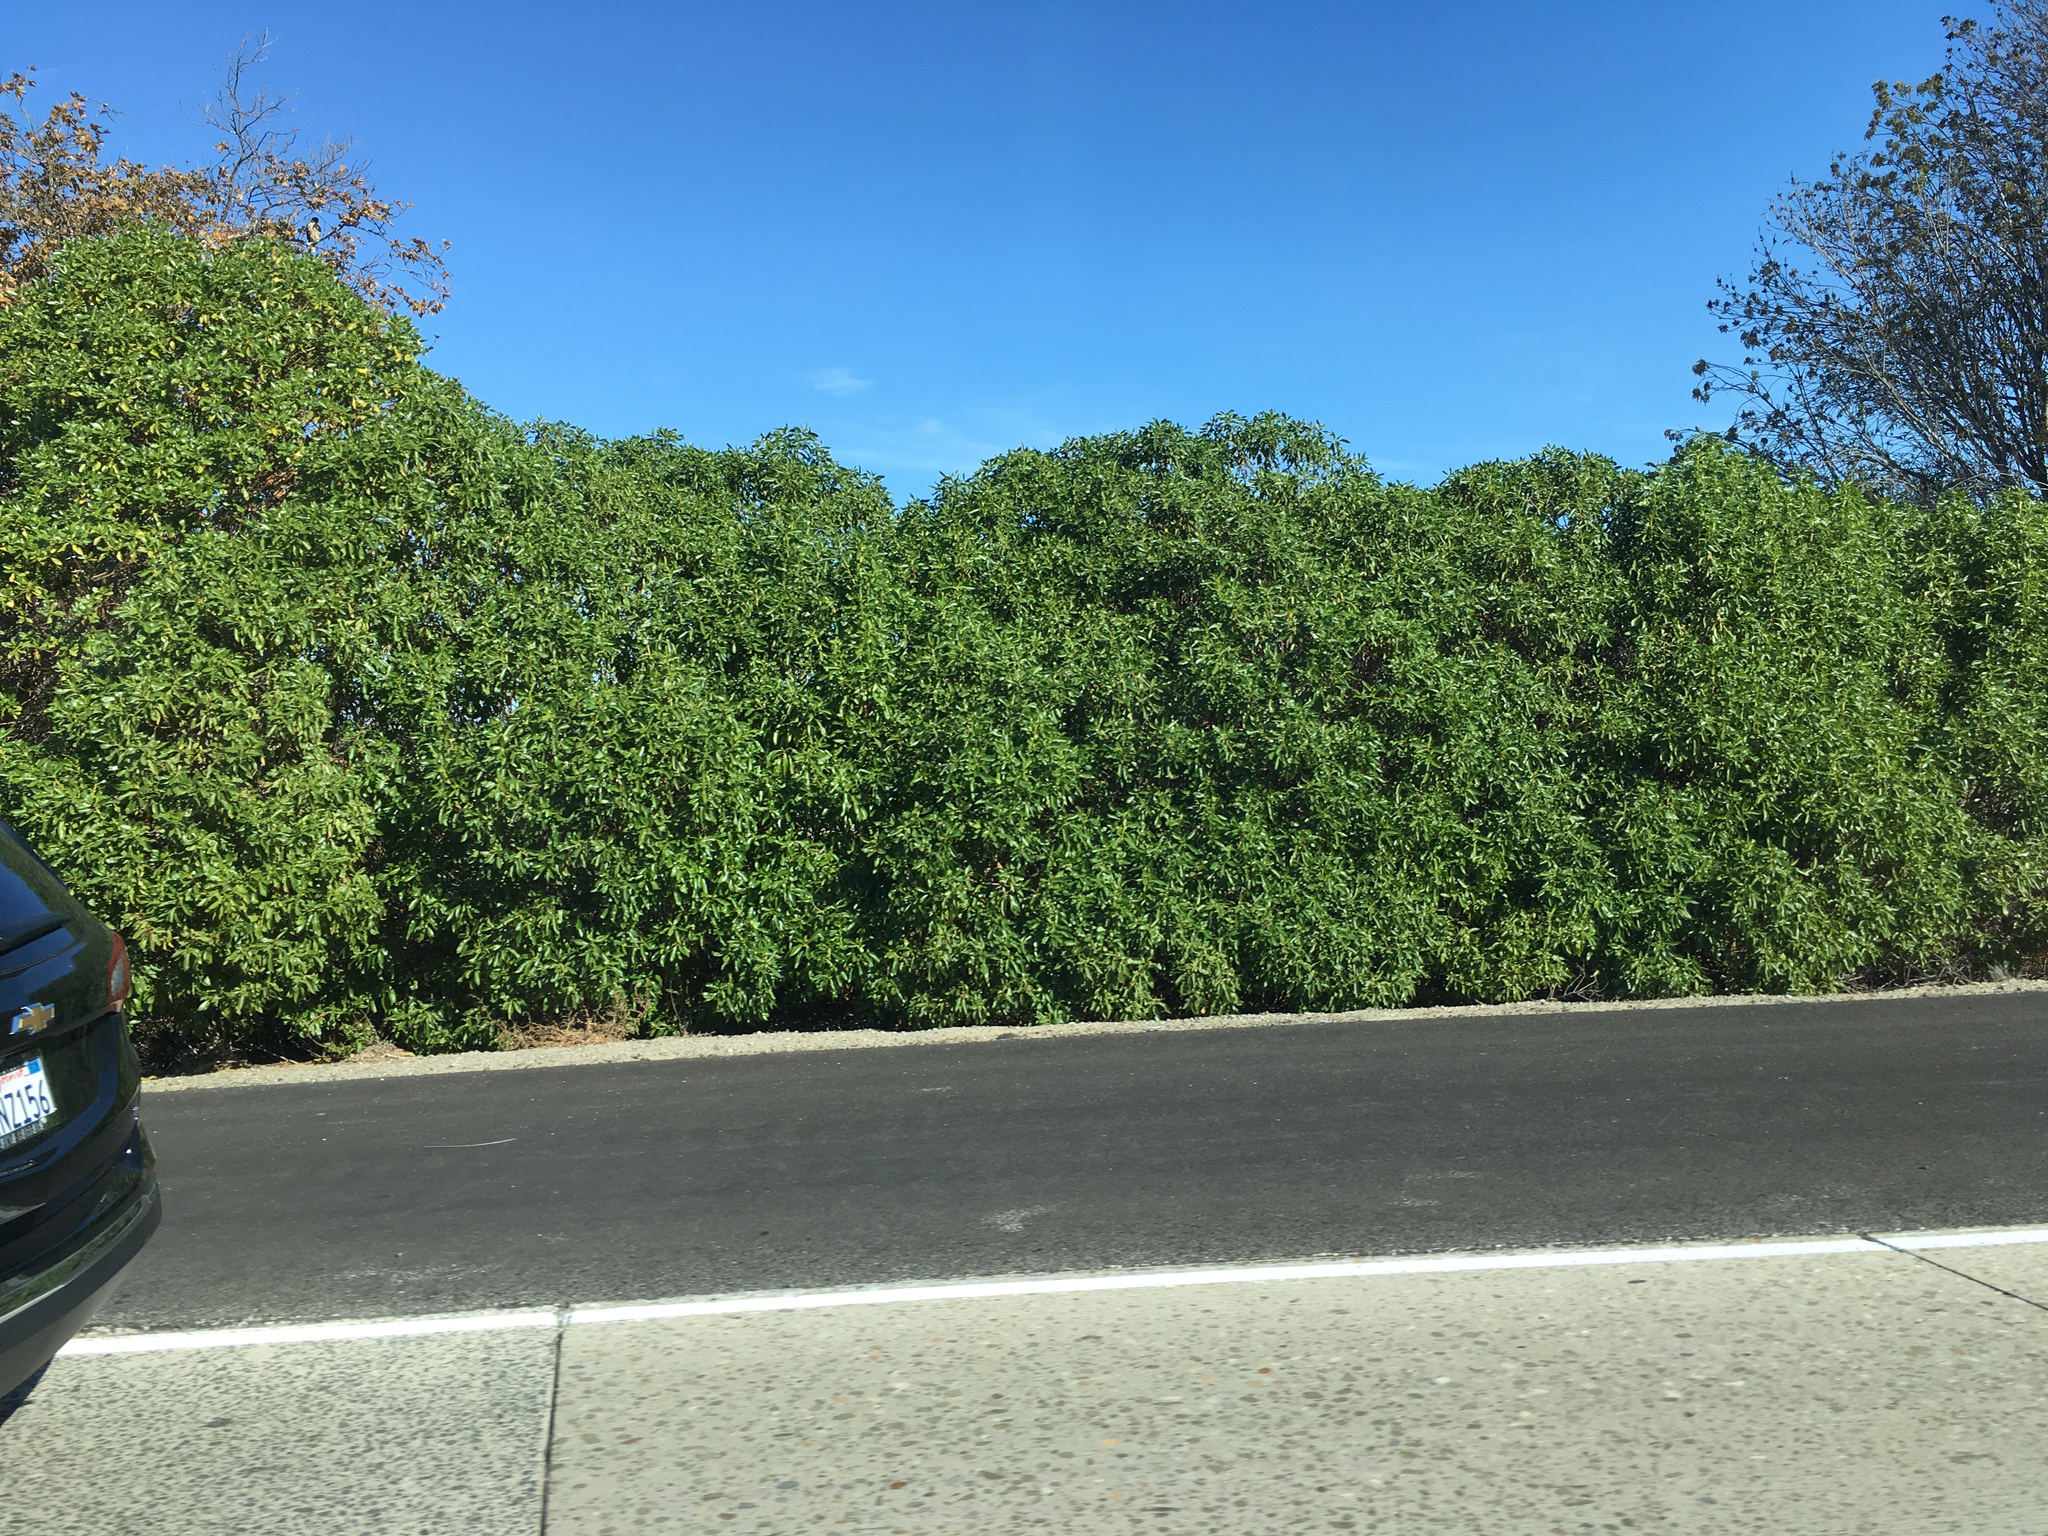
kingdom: Plantae
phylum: Tracheophyta
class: Magnoliopsida
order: Lamiales
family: Scrophulariaceae
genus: Myoporum
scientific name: Myoporum laetum
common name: Ngaio tree
